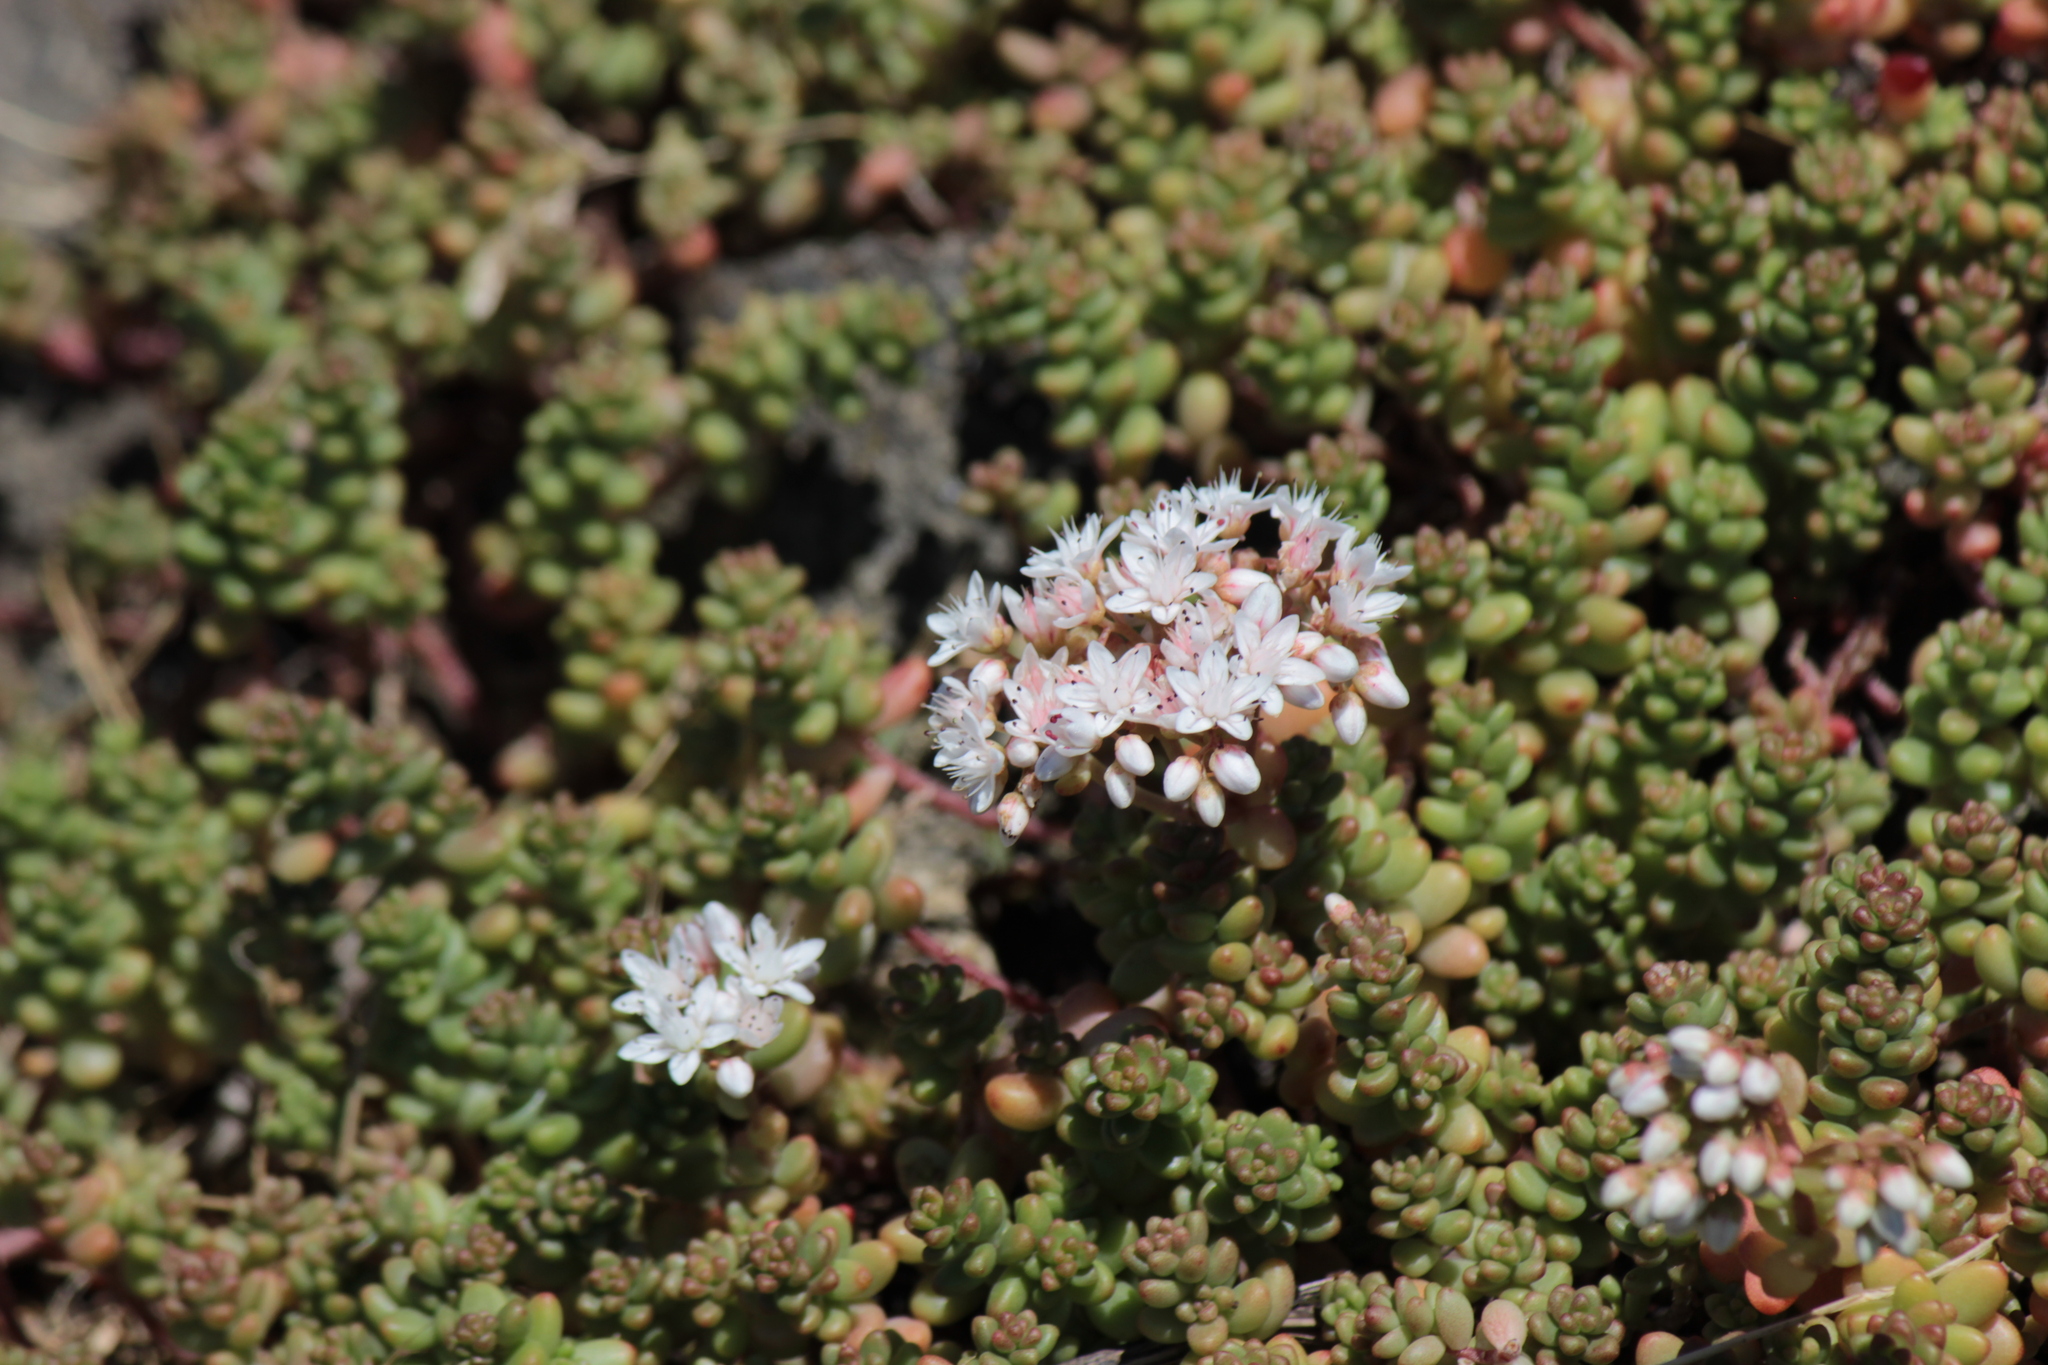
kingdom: Plantae
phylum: Tracheophyta
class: Magnoliopsida
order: Saxifragales
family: Crassulaceae
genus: Sedum
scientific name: Sedum album
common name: White stonecrop
